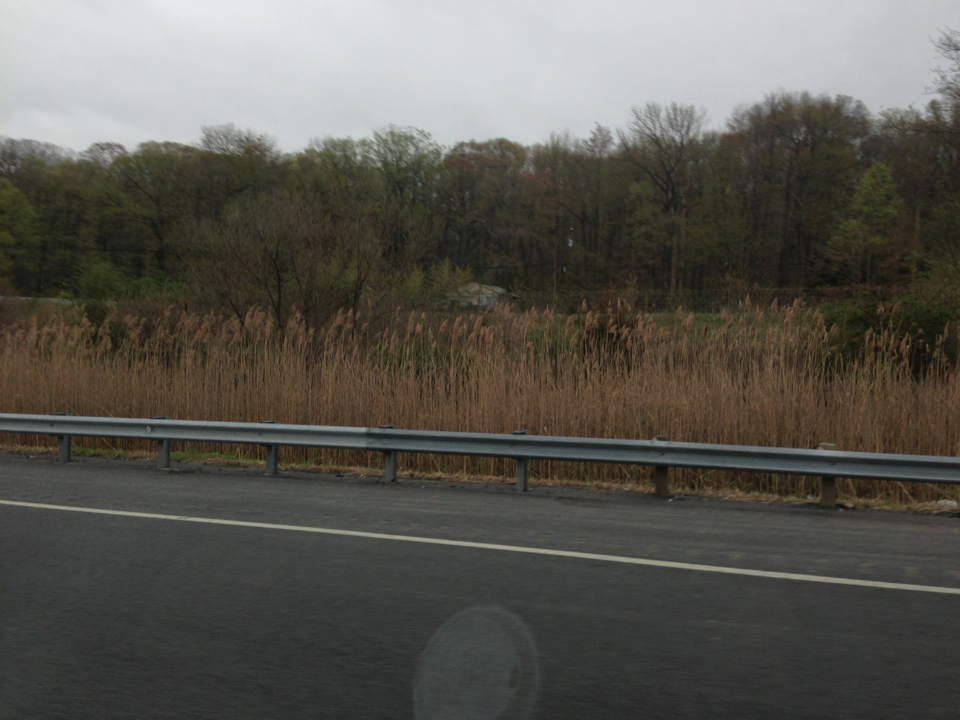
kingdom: Plantae
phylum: Tracheophyta
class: Liliopsida
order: Poales
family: Poaceae
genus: Phragmites
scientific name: Phragmites australis
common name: Common reed
